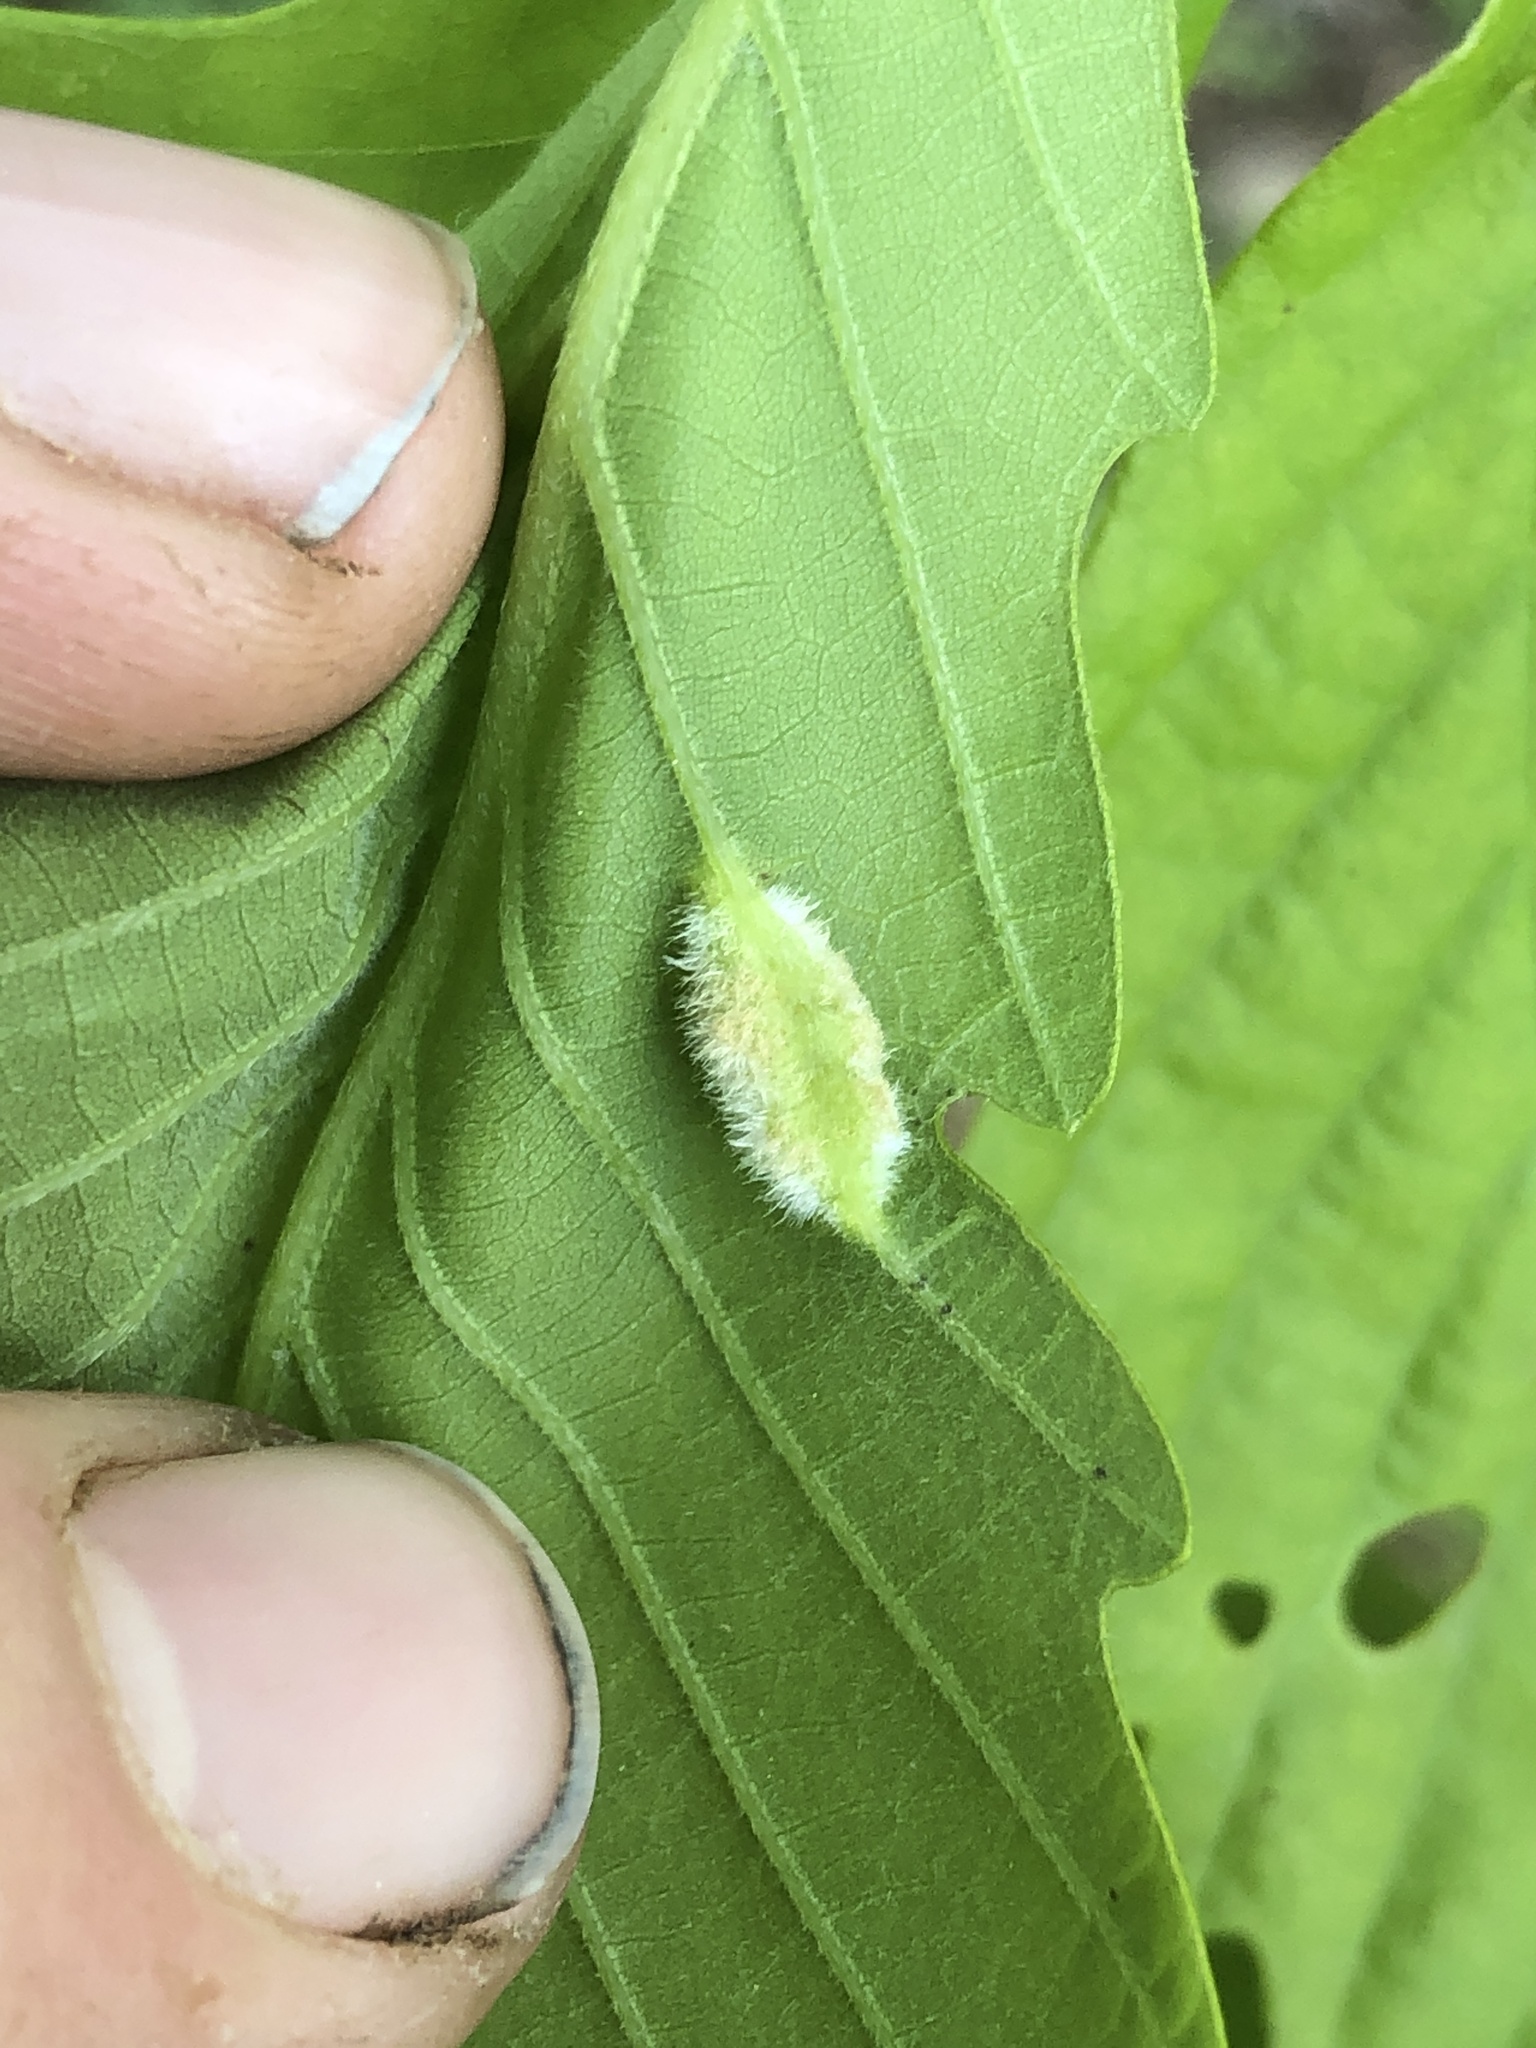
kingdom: Animalia
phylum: Arthropoda
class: Insecta
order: Diptera
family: Cecidomyiidae
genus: Macrodiplosis
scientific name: Macrodiplosis niveipila
